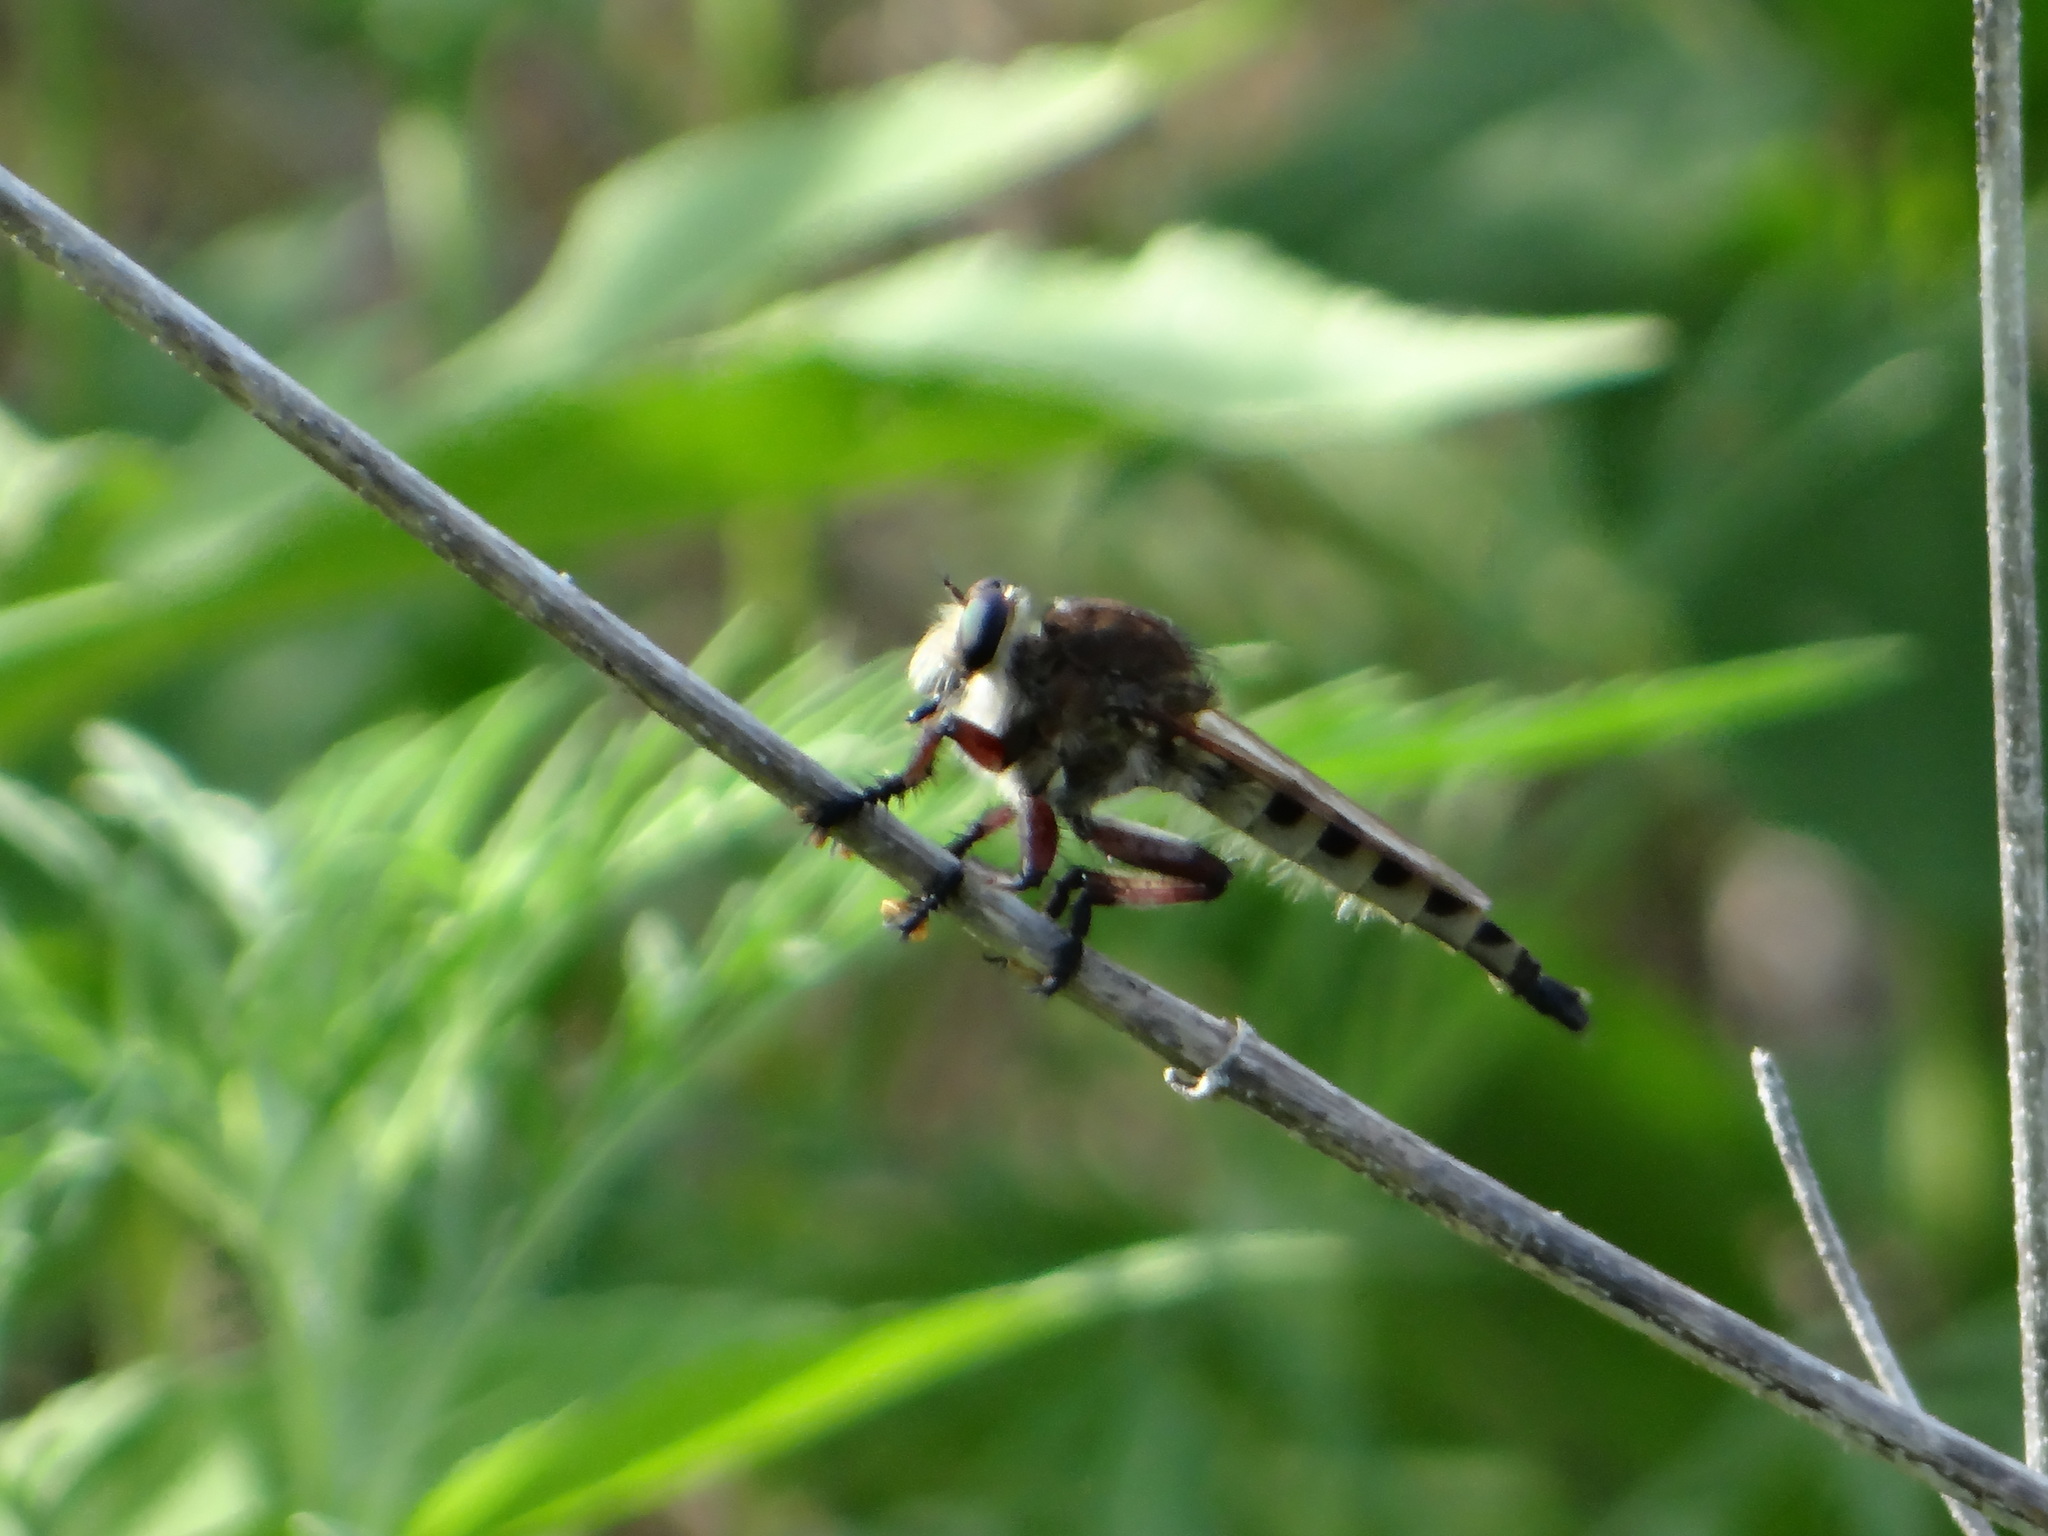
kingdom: Animalia
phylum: Arthropoda
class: Insecta
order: Diptera
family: Asilidae
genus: Promachus
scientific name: Promachus hinei
